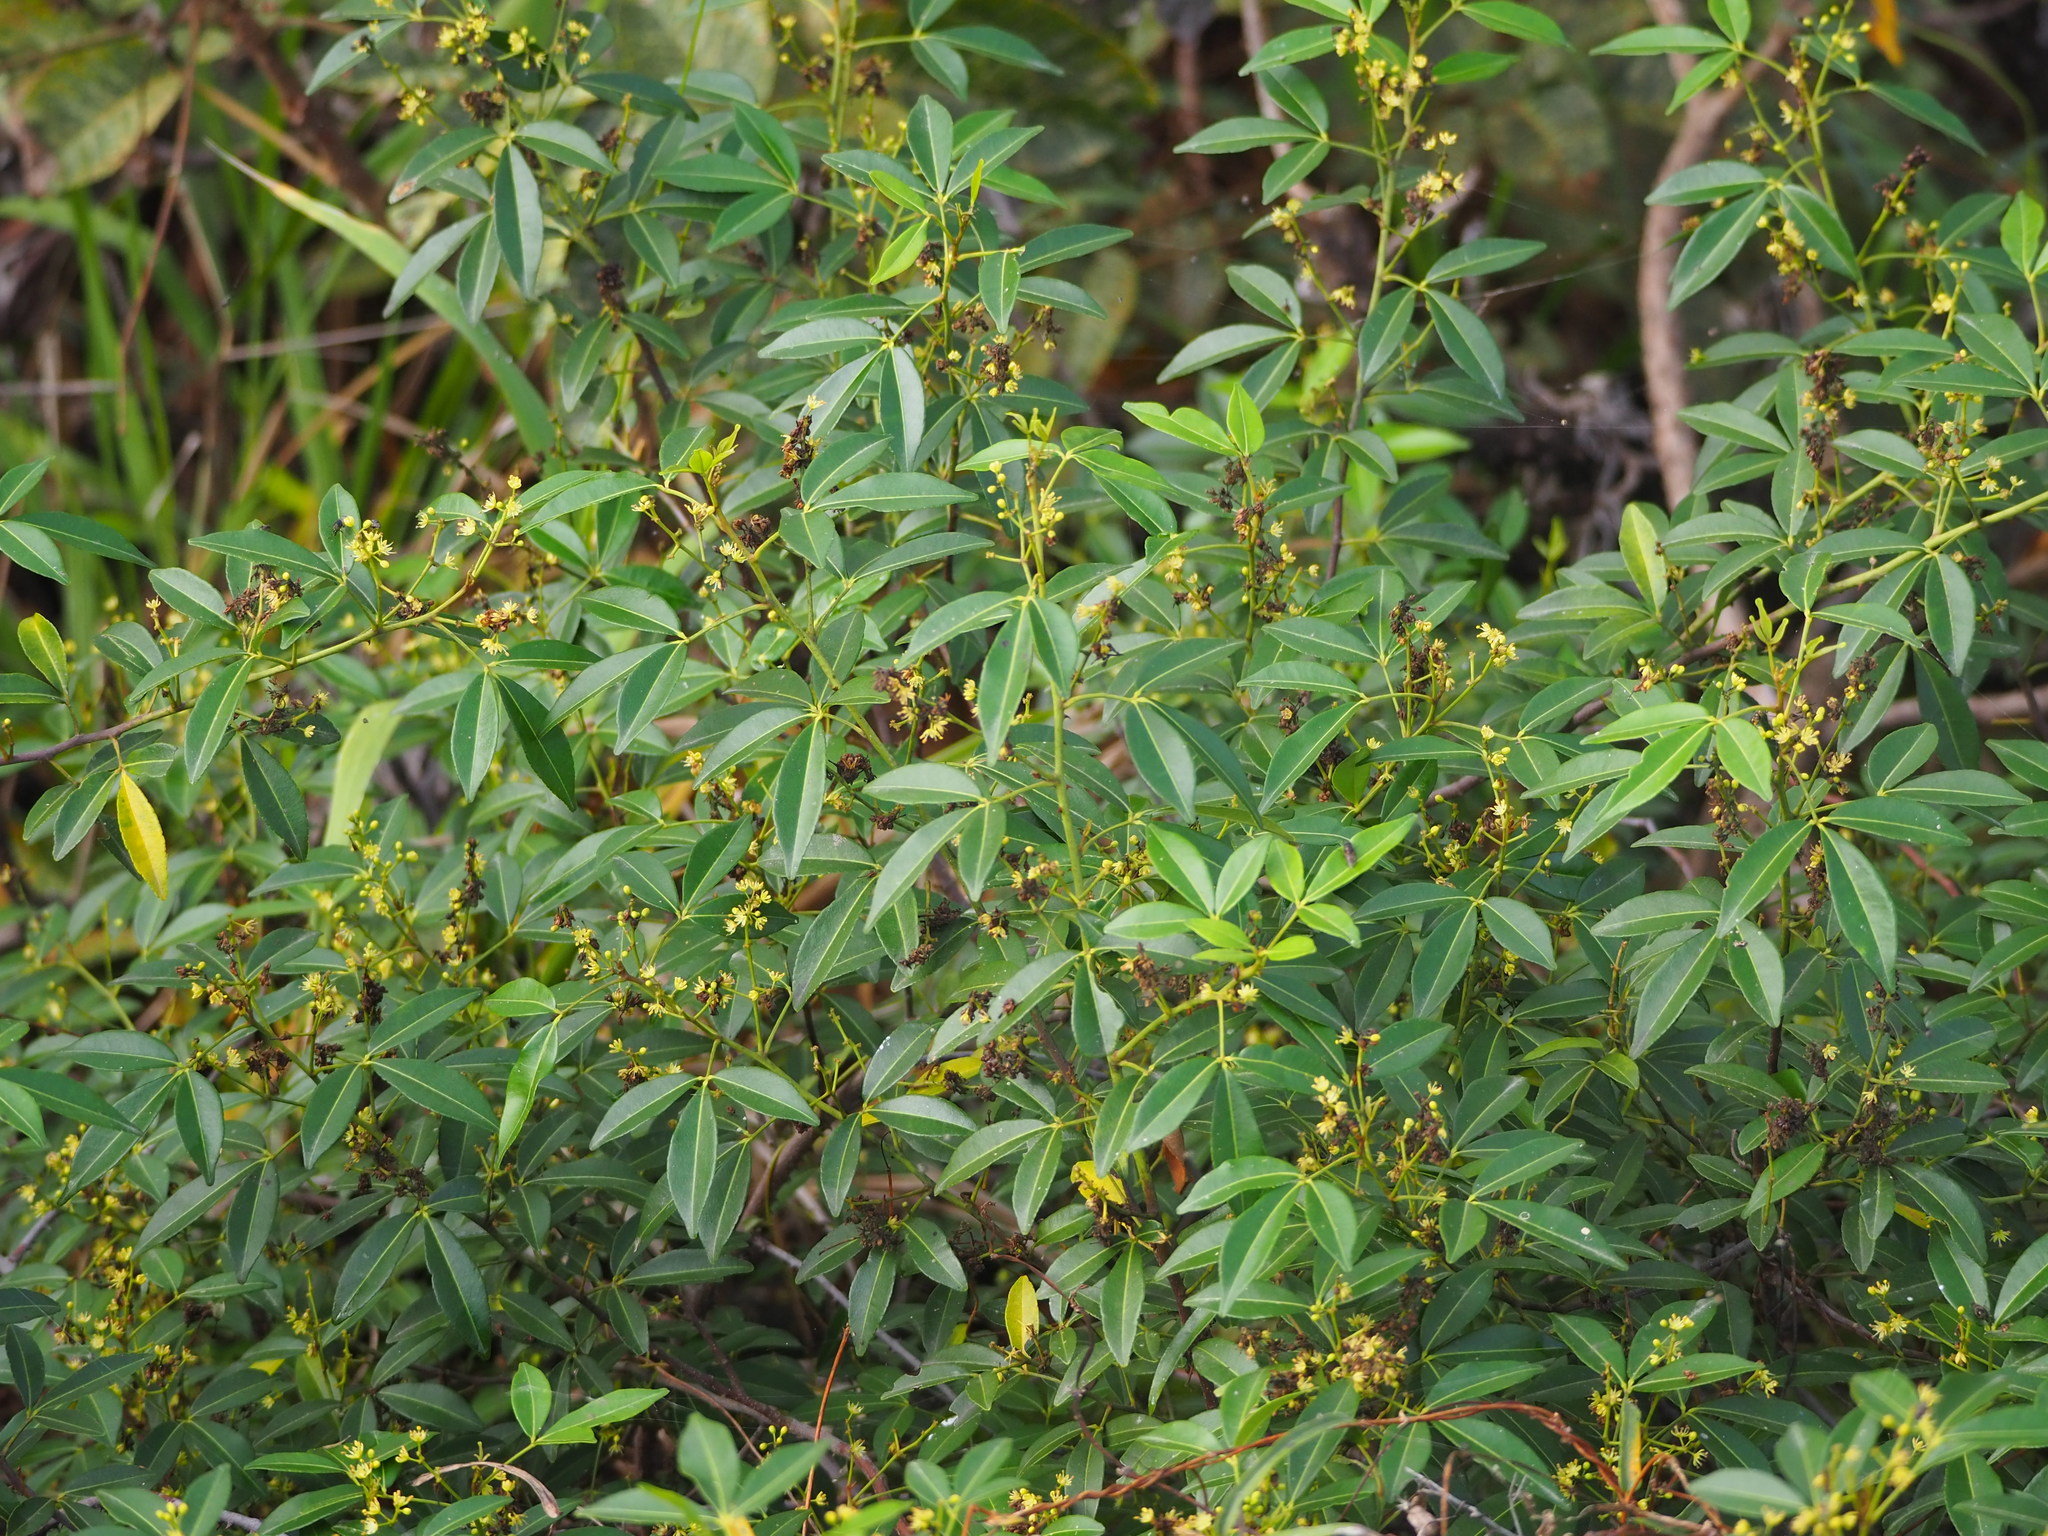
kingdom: Plantae
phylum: Tracheophyta
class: Magnoliopsida
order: Sapindales
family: Rutaceae
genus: Zanthoxylum
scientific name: Zanthoxylum asiaticum
